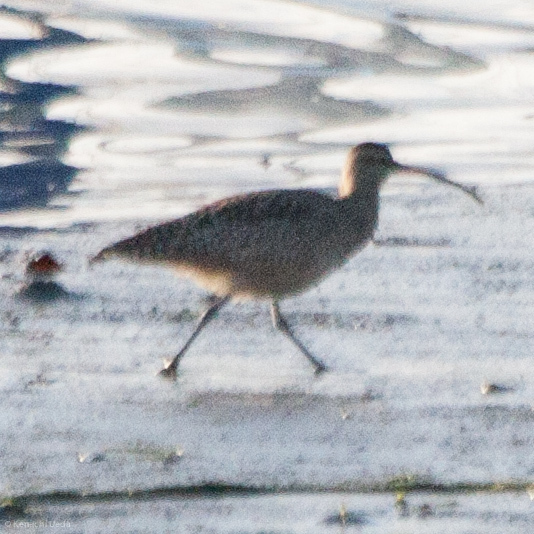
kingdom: Animalia
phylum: Chordata
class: Aves
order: Charadriiformes
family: Scolopacidae
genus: Numenius
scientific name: Numenius phaeopus
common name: Whimbrel
